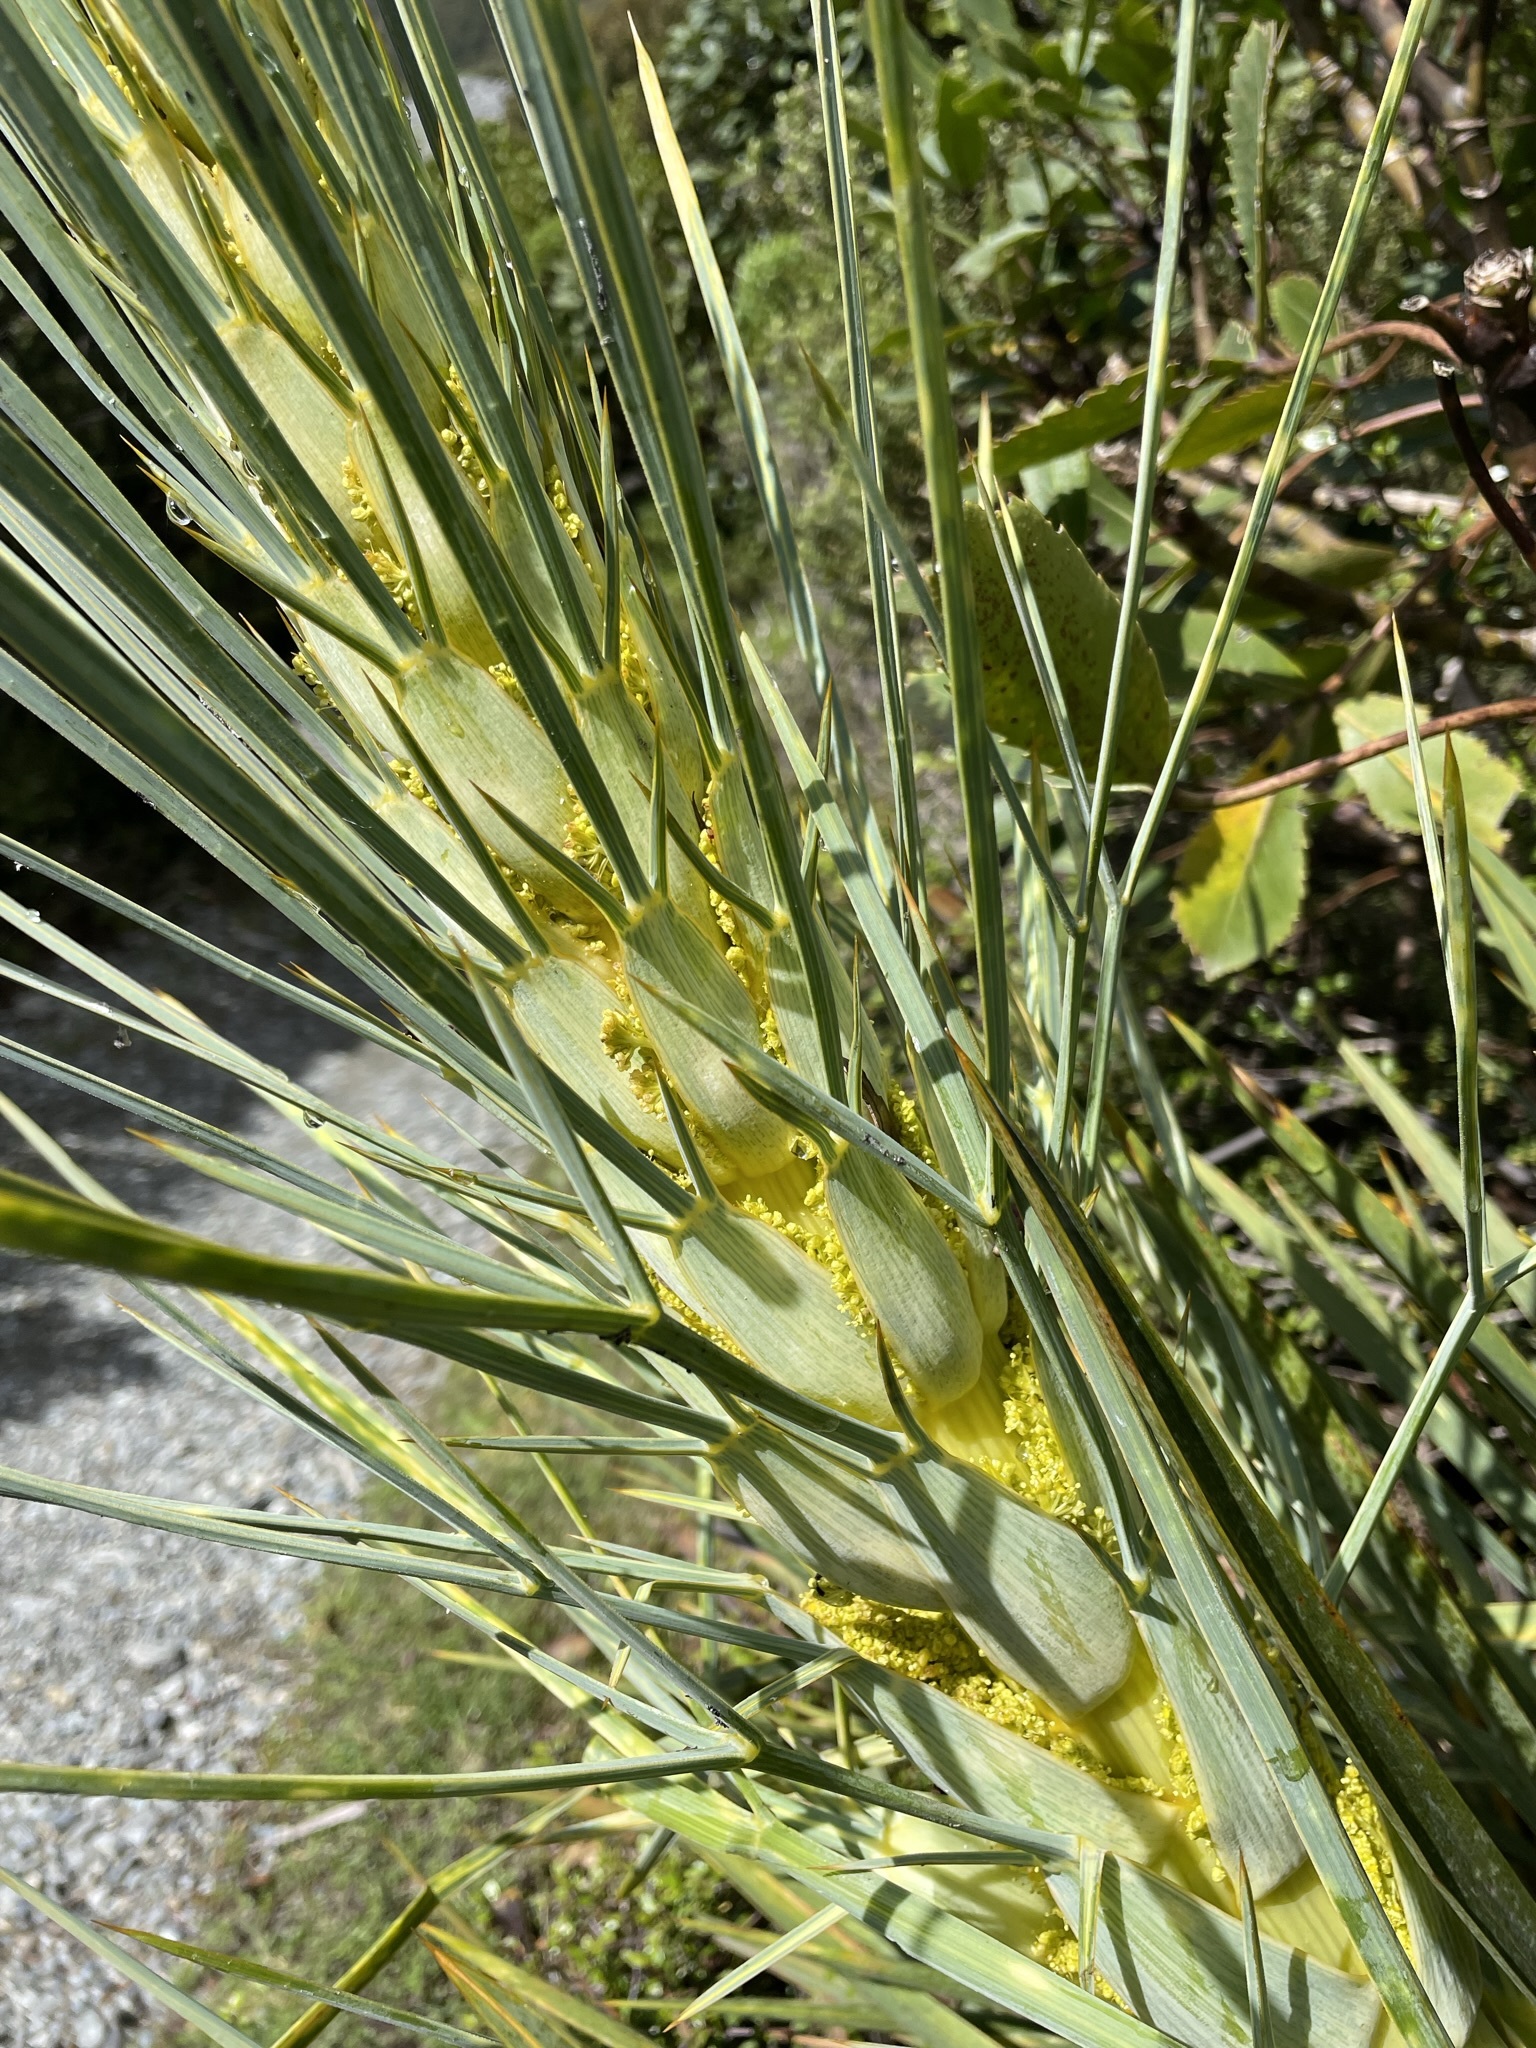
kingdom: Plantae
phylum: Tracheophyta
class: Magnoliopsida
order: Apiales
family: Apiaceae
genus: Aciphylla
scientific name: Aciphylla scott-thomsonii
